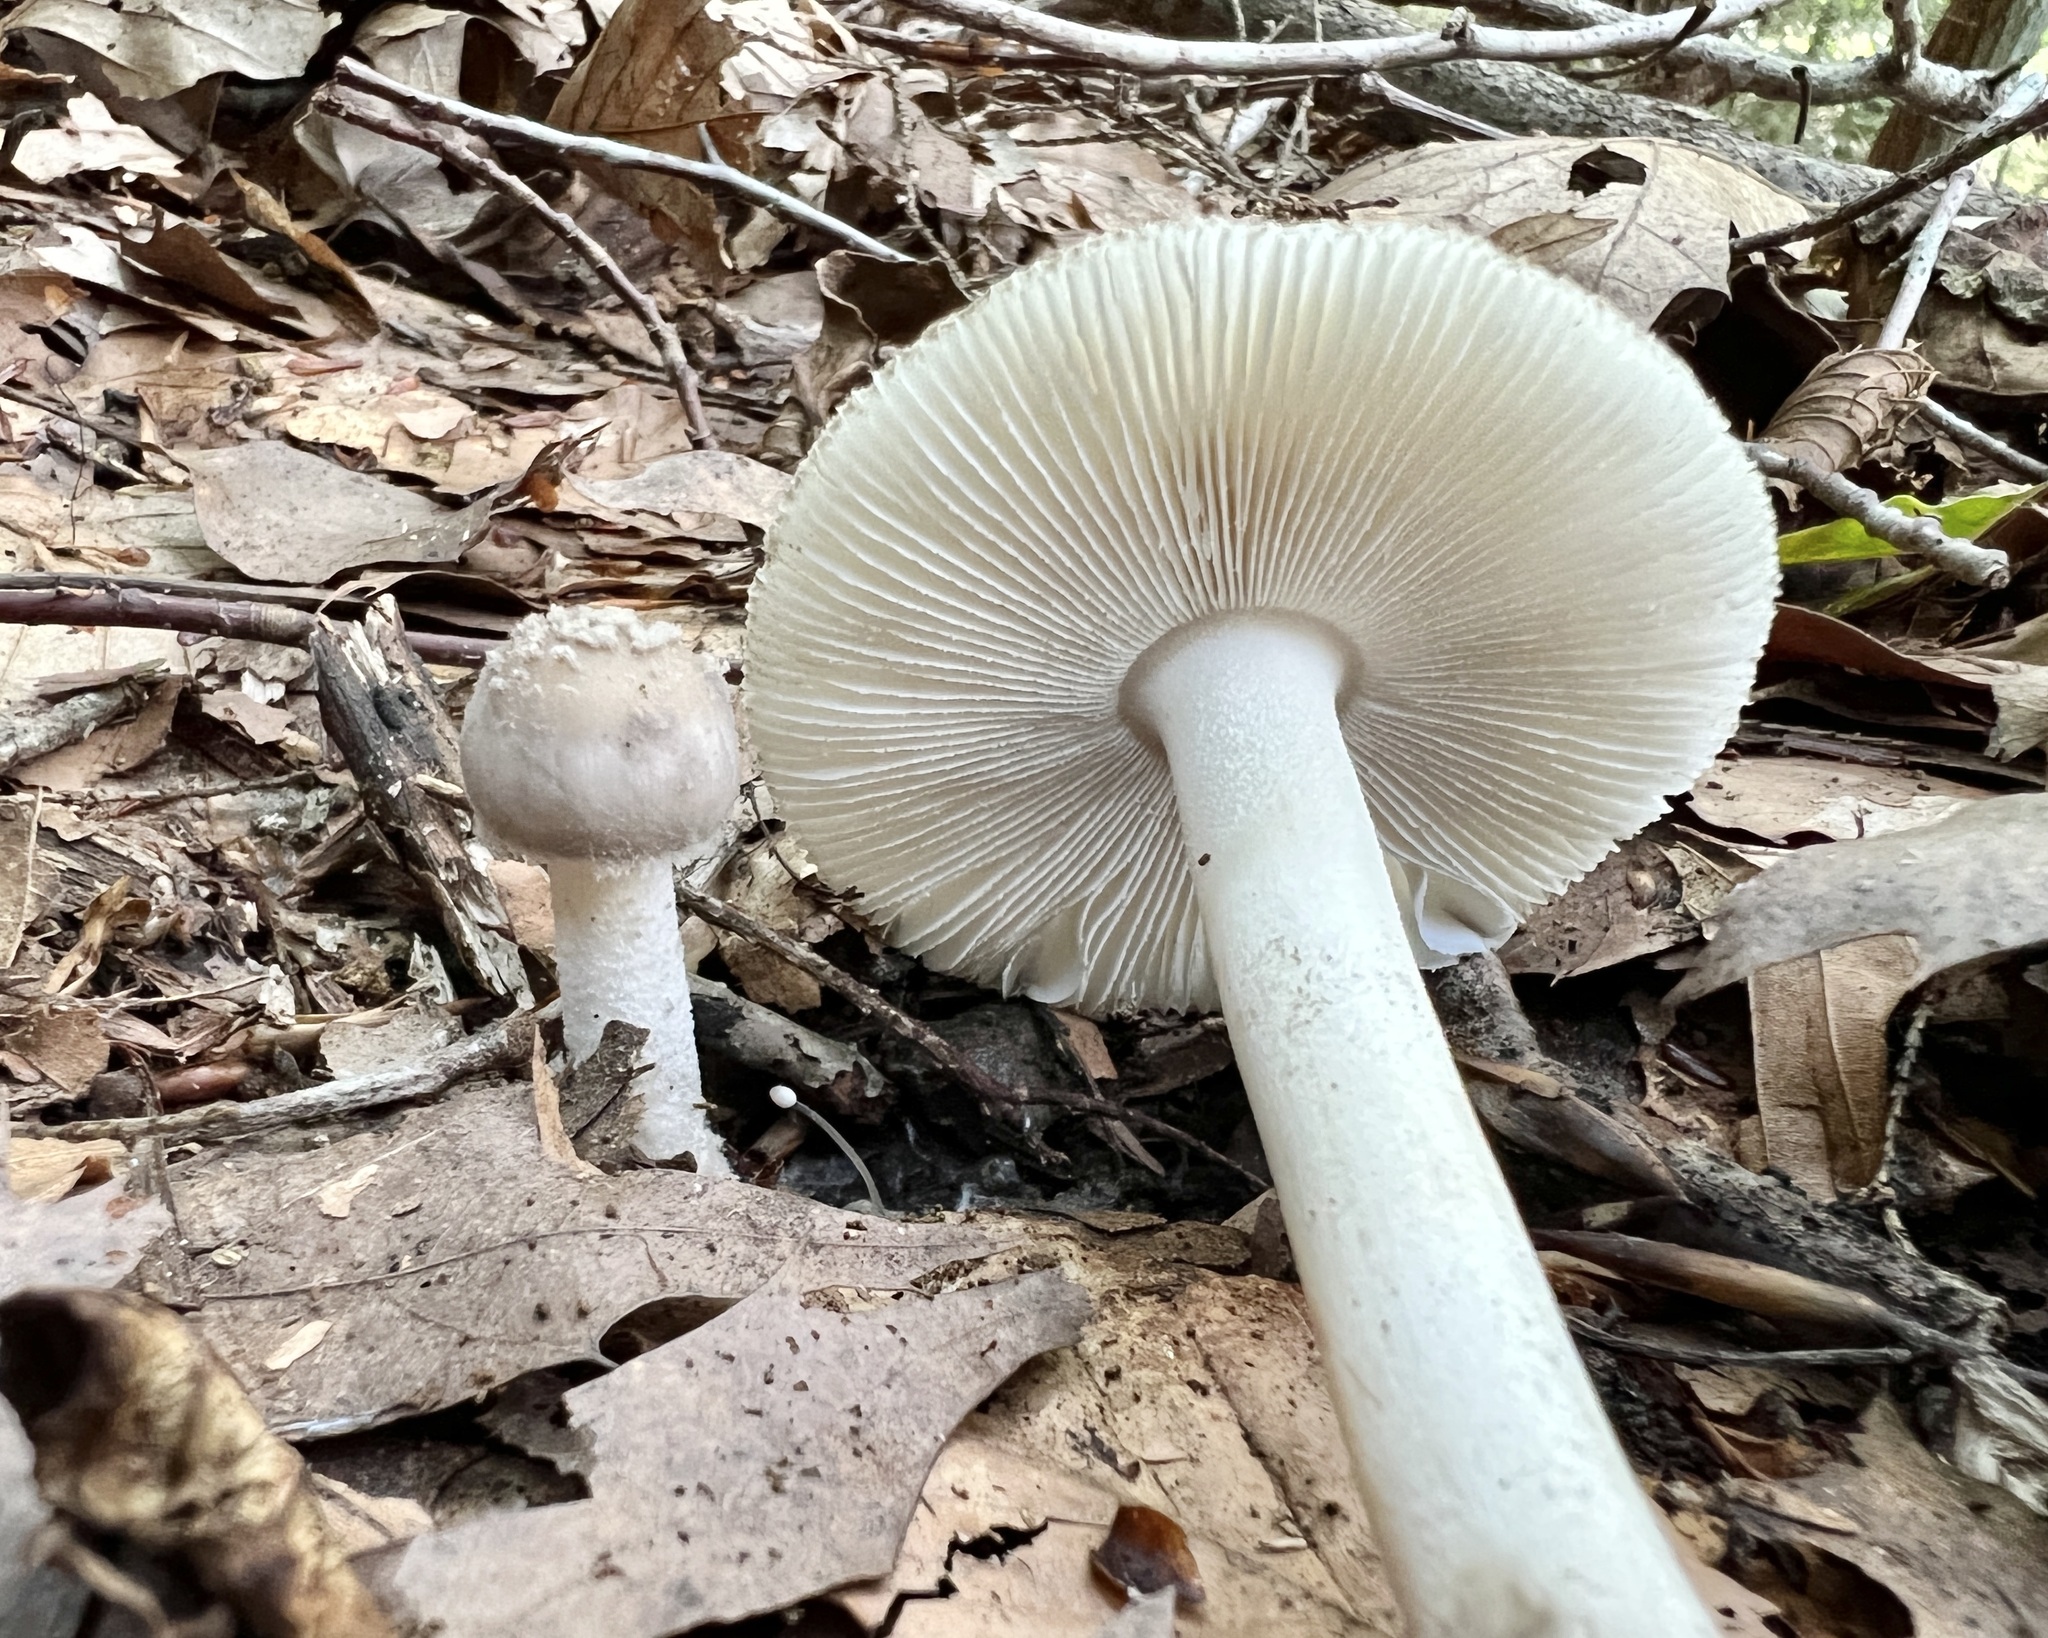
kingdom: Fungi
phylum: Basidiomycota
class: Agaricomycetes
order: Agaricales
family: Amanitaceae
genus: Amanita
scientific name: Amanita farinosa
